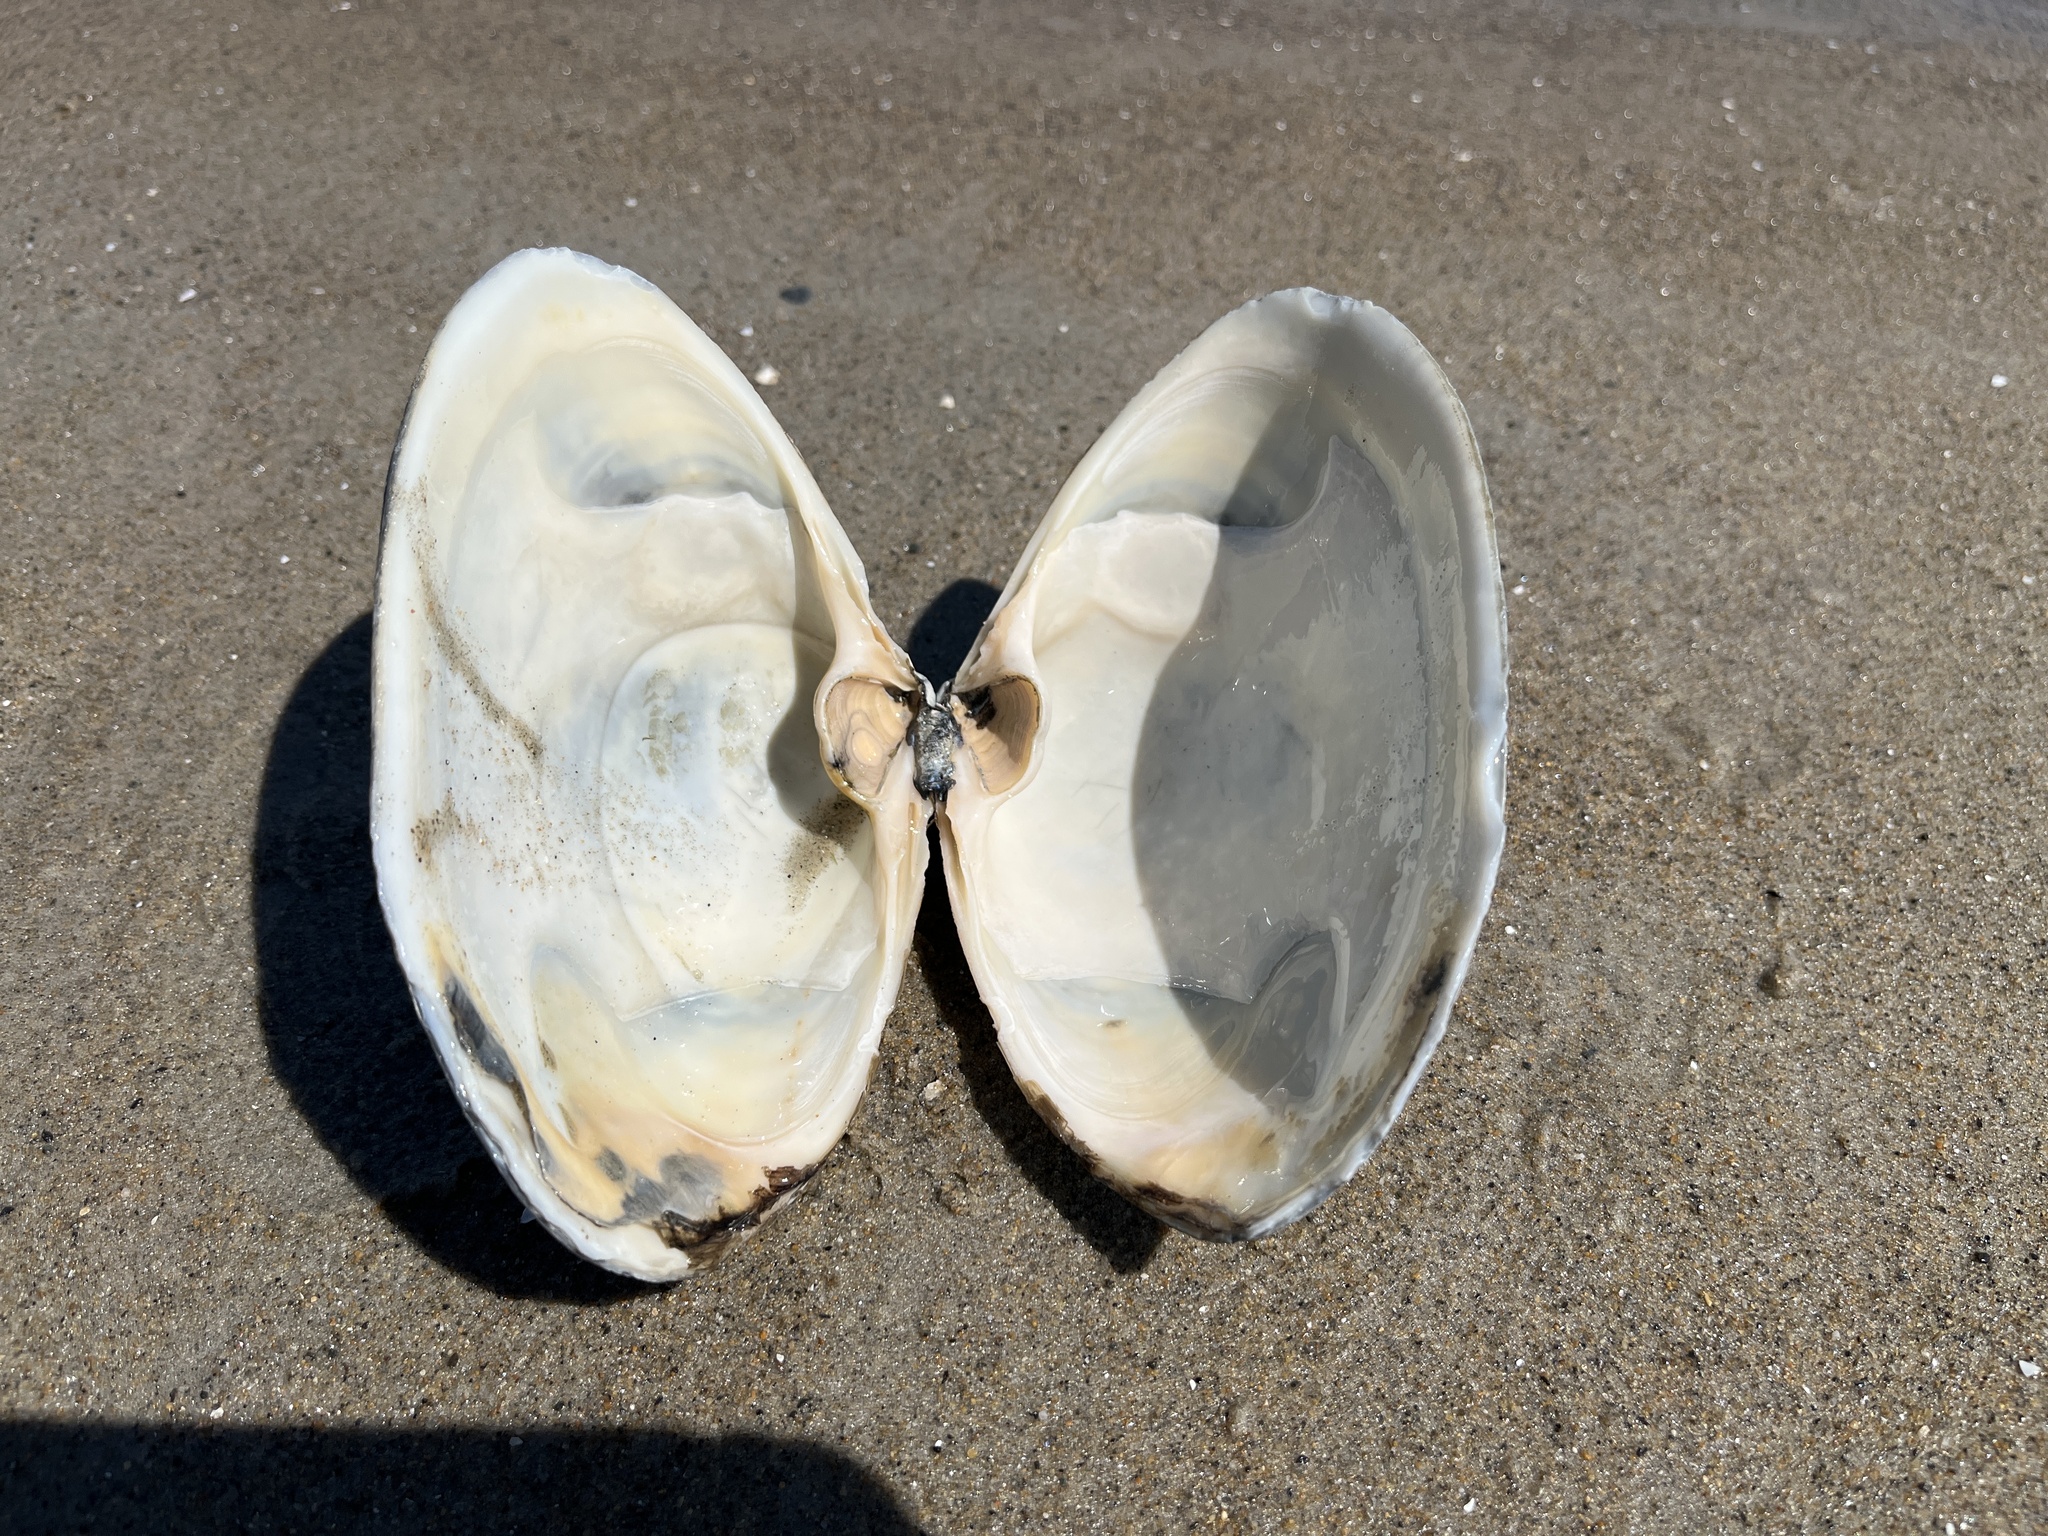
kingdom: Animalia
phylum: Mollusca
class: Bivalvia
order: Venerida
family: Mactridae
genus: Spisula
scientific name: Spisula solidissima
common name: Atlantic surf clam
